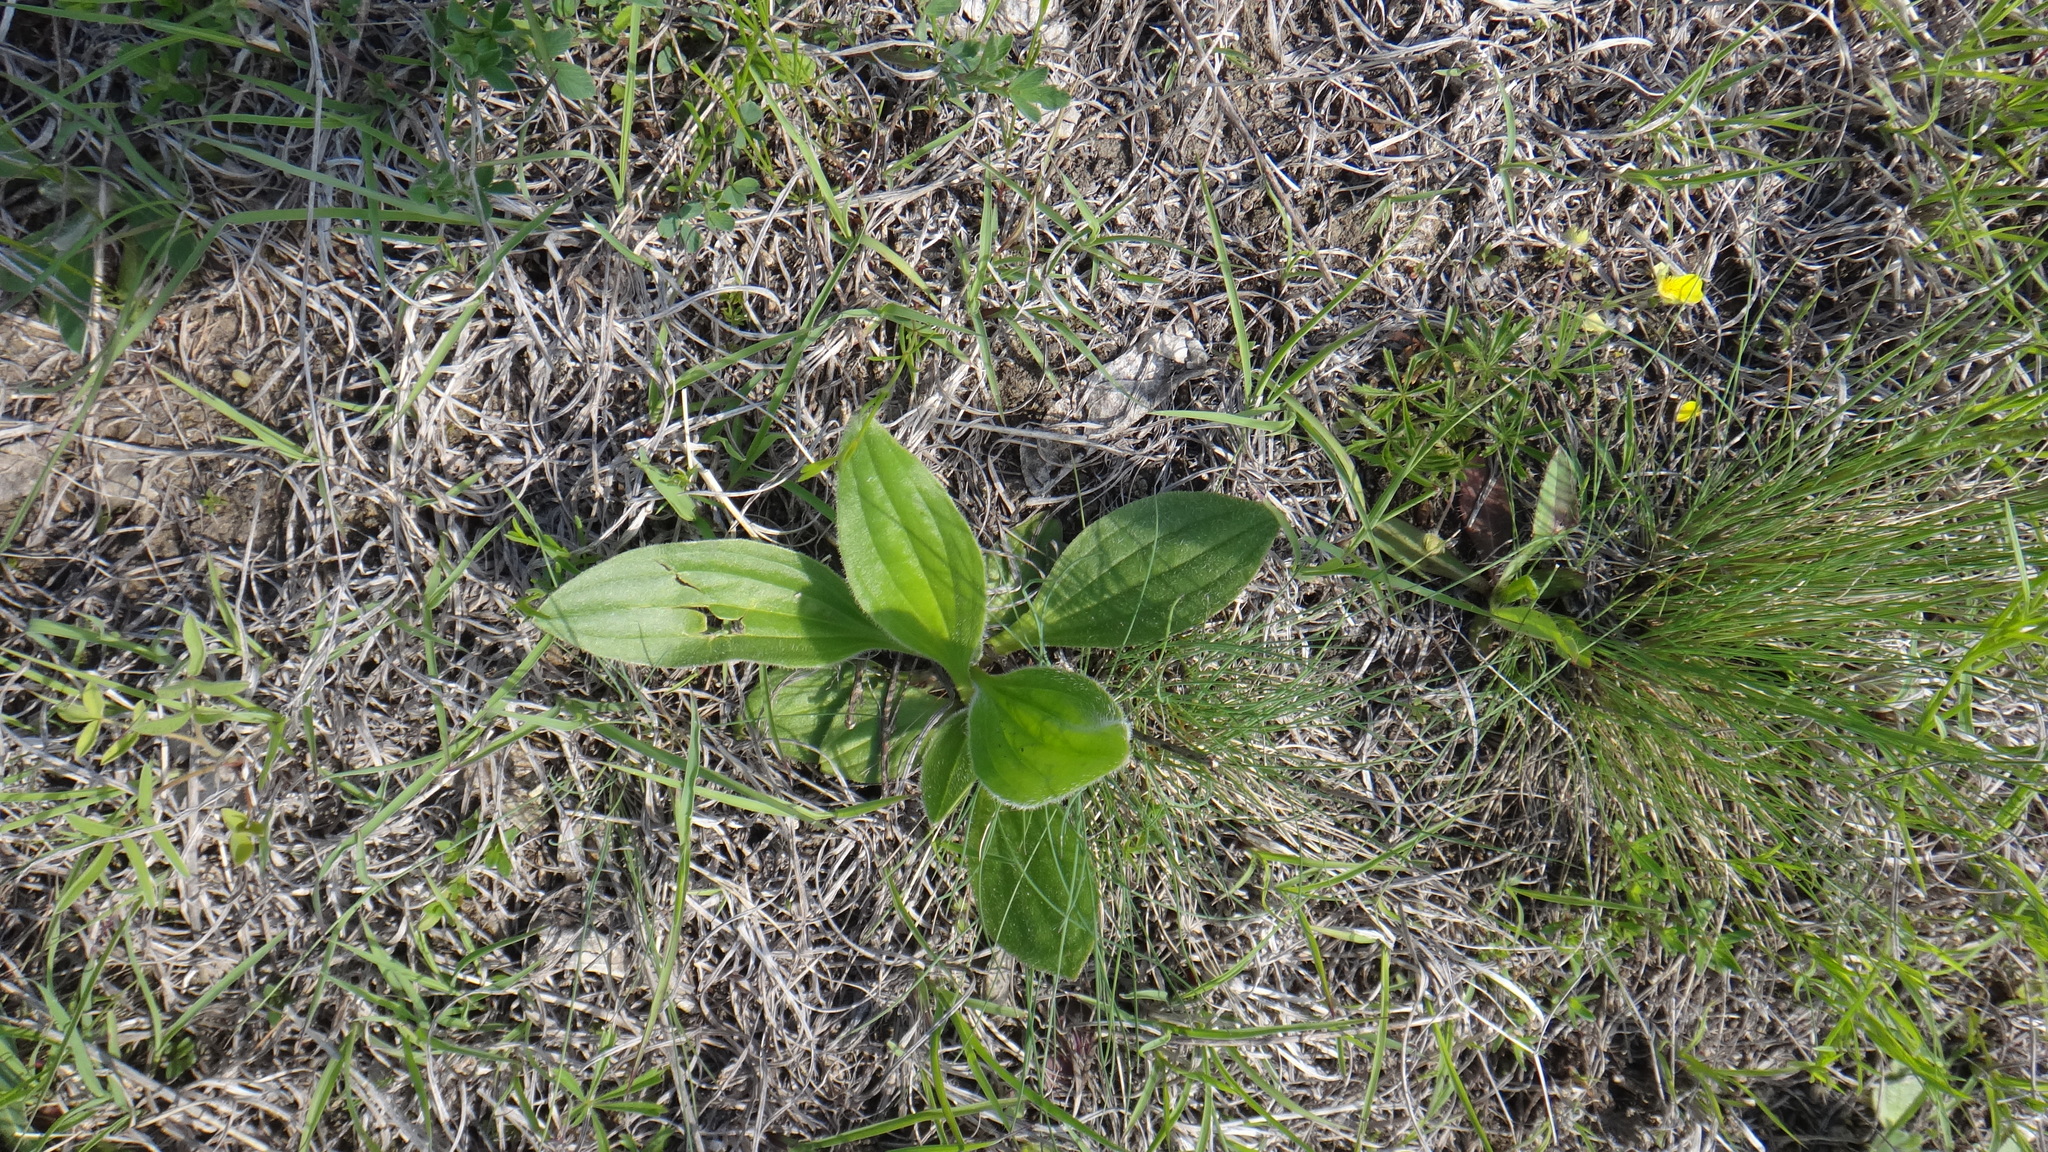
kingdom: Plantae
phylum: Tracheophyta
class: Magnoliopsida
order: Lamiales
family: Plantaginaceae
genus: Plantago
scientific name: Plantago media
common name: Hoary plantain
